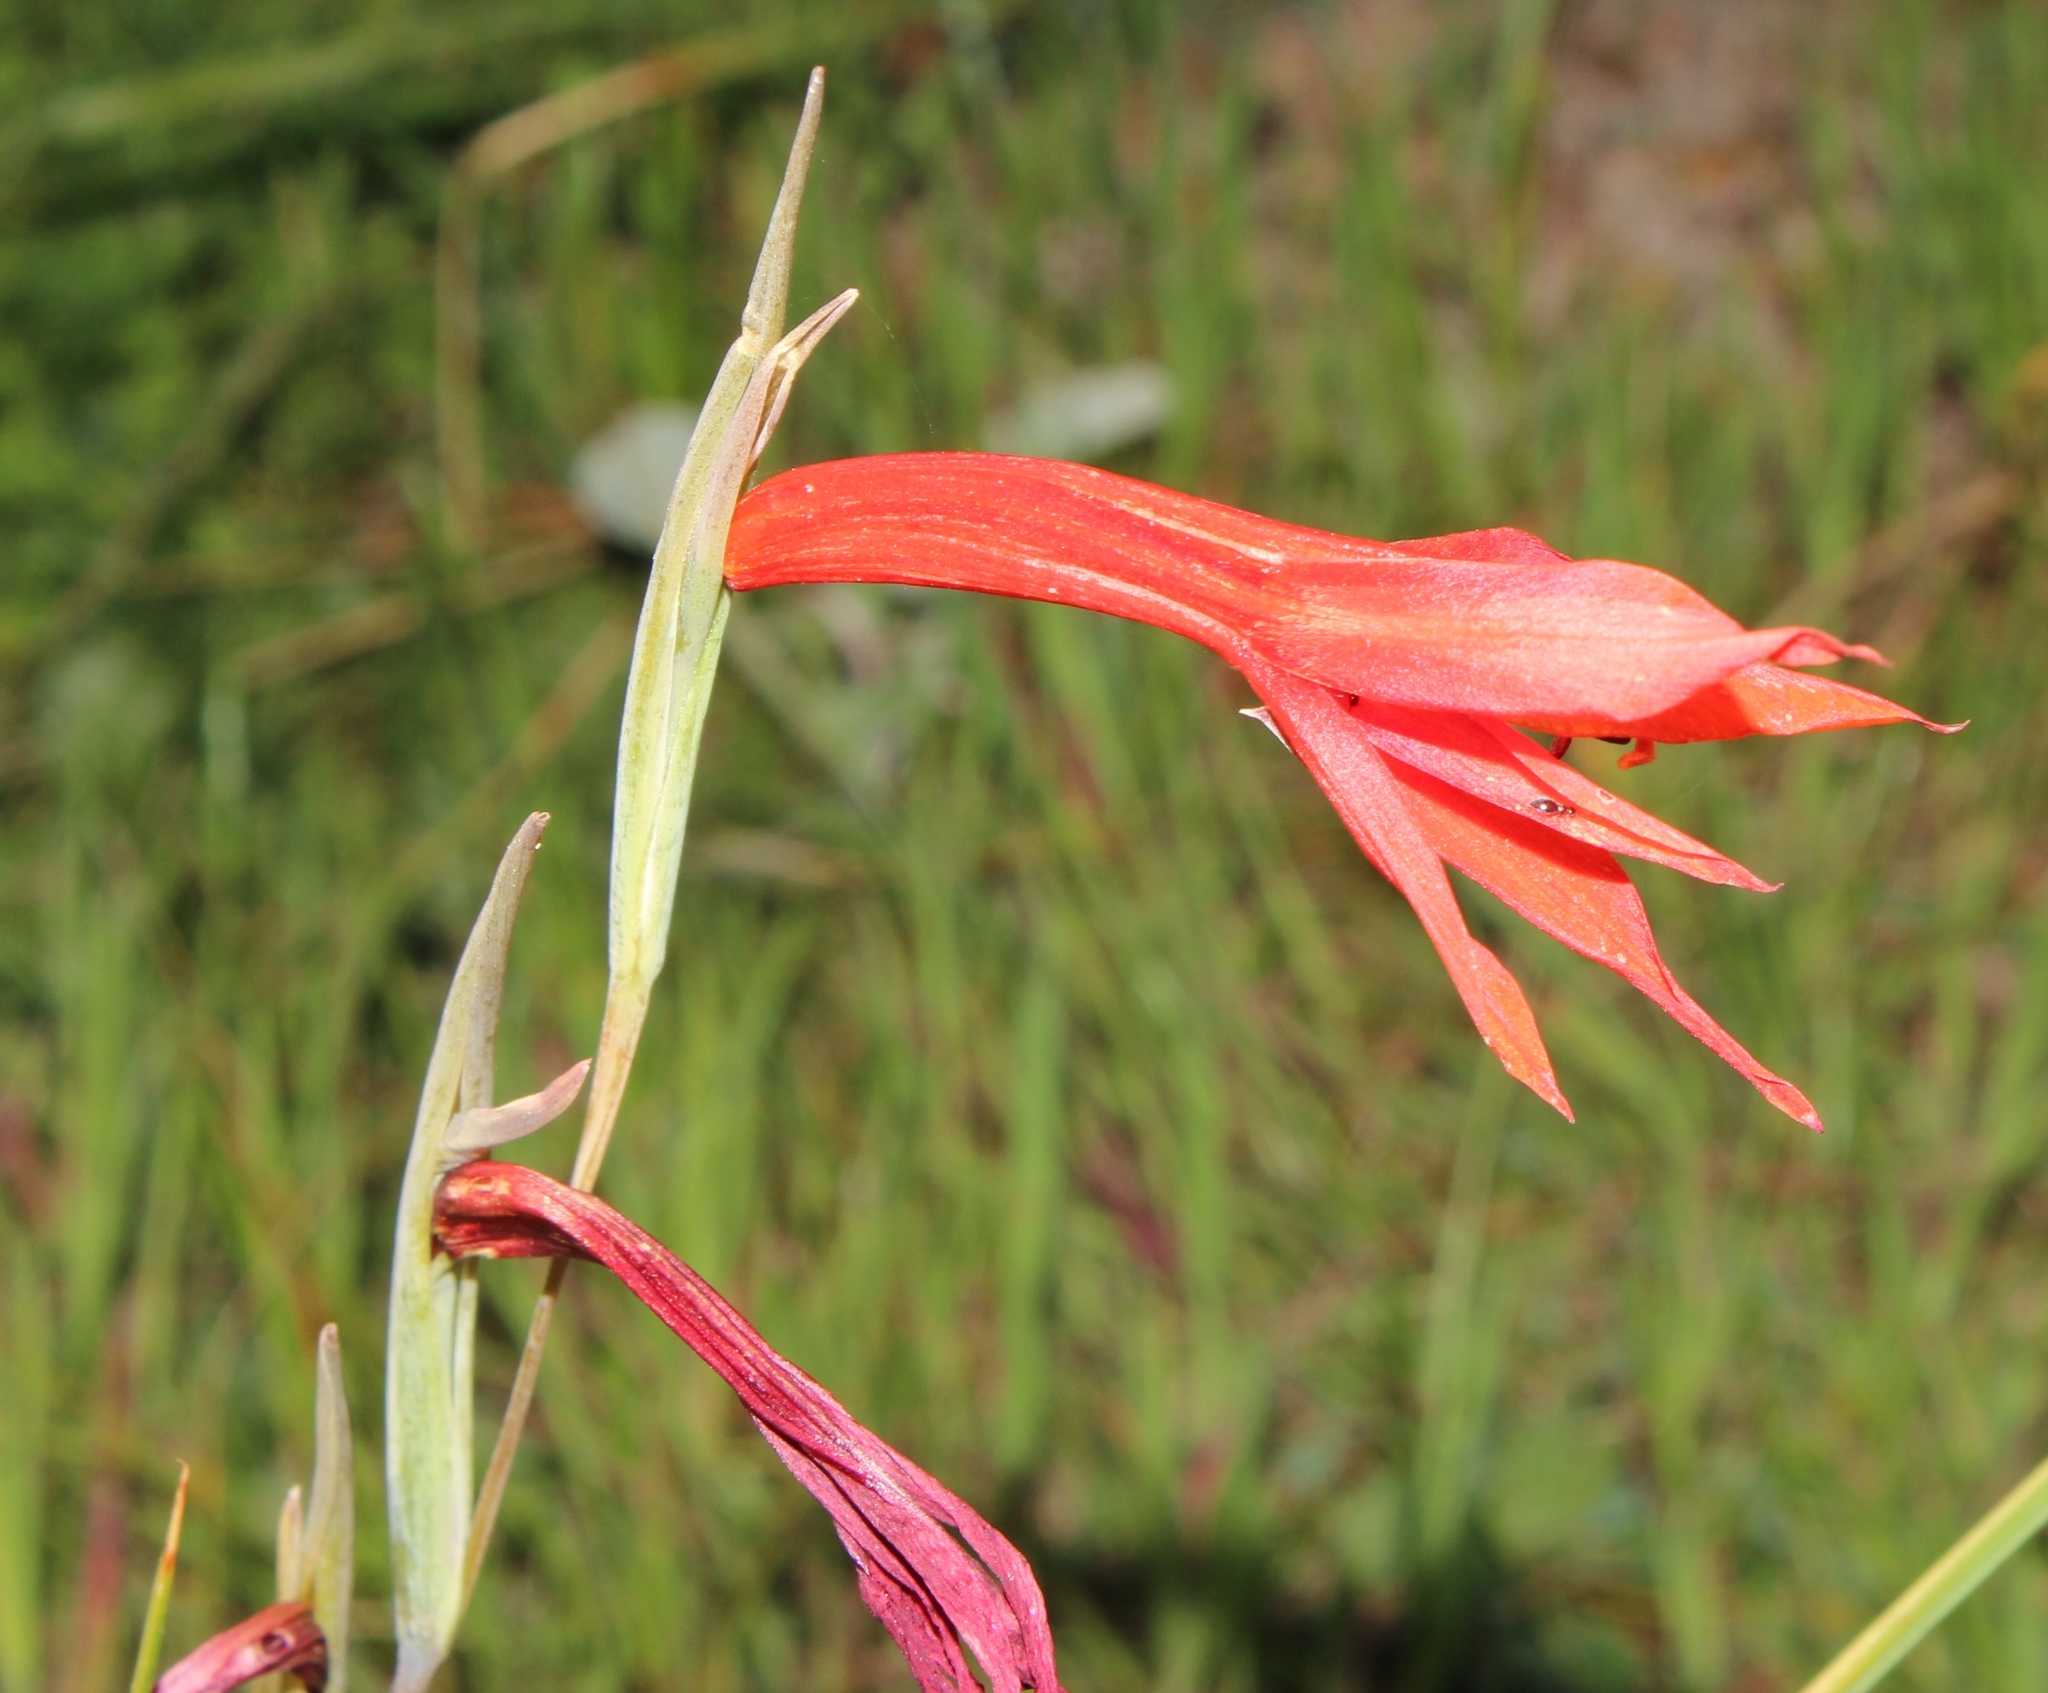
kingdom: Plantae
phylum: Tracheophyta
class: Liliopsida
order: Asparagales
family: Iridaceae
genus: Gladiolus
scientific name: Gladiolus watsonius
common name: Red afrikaner
